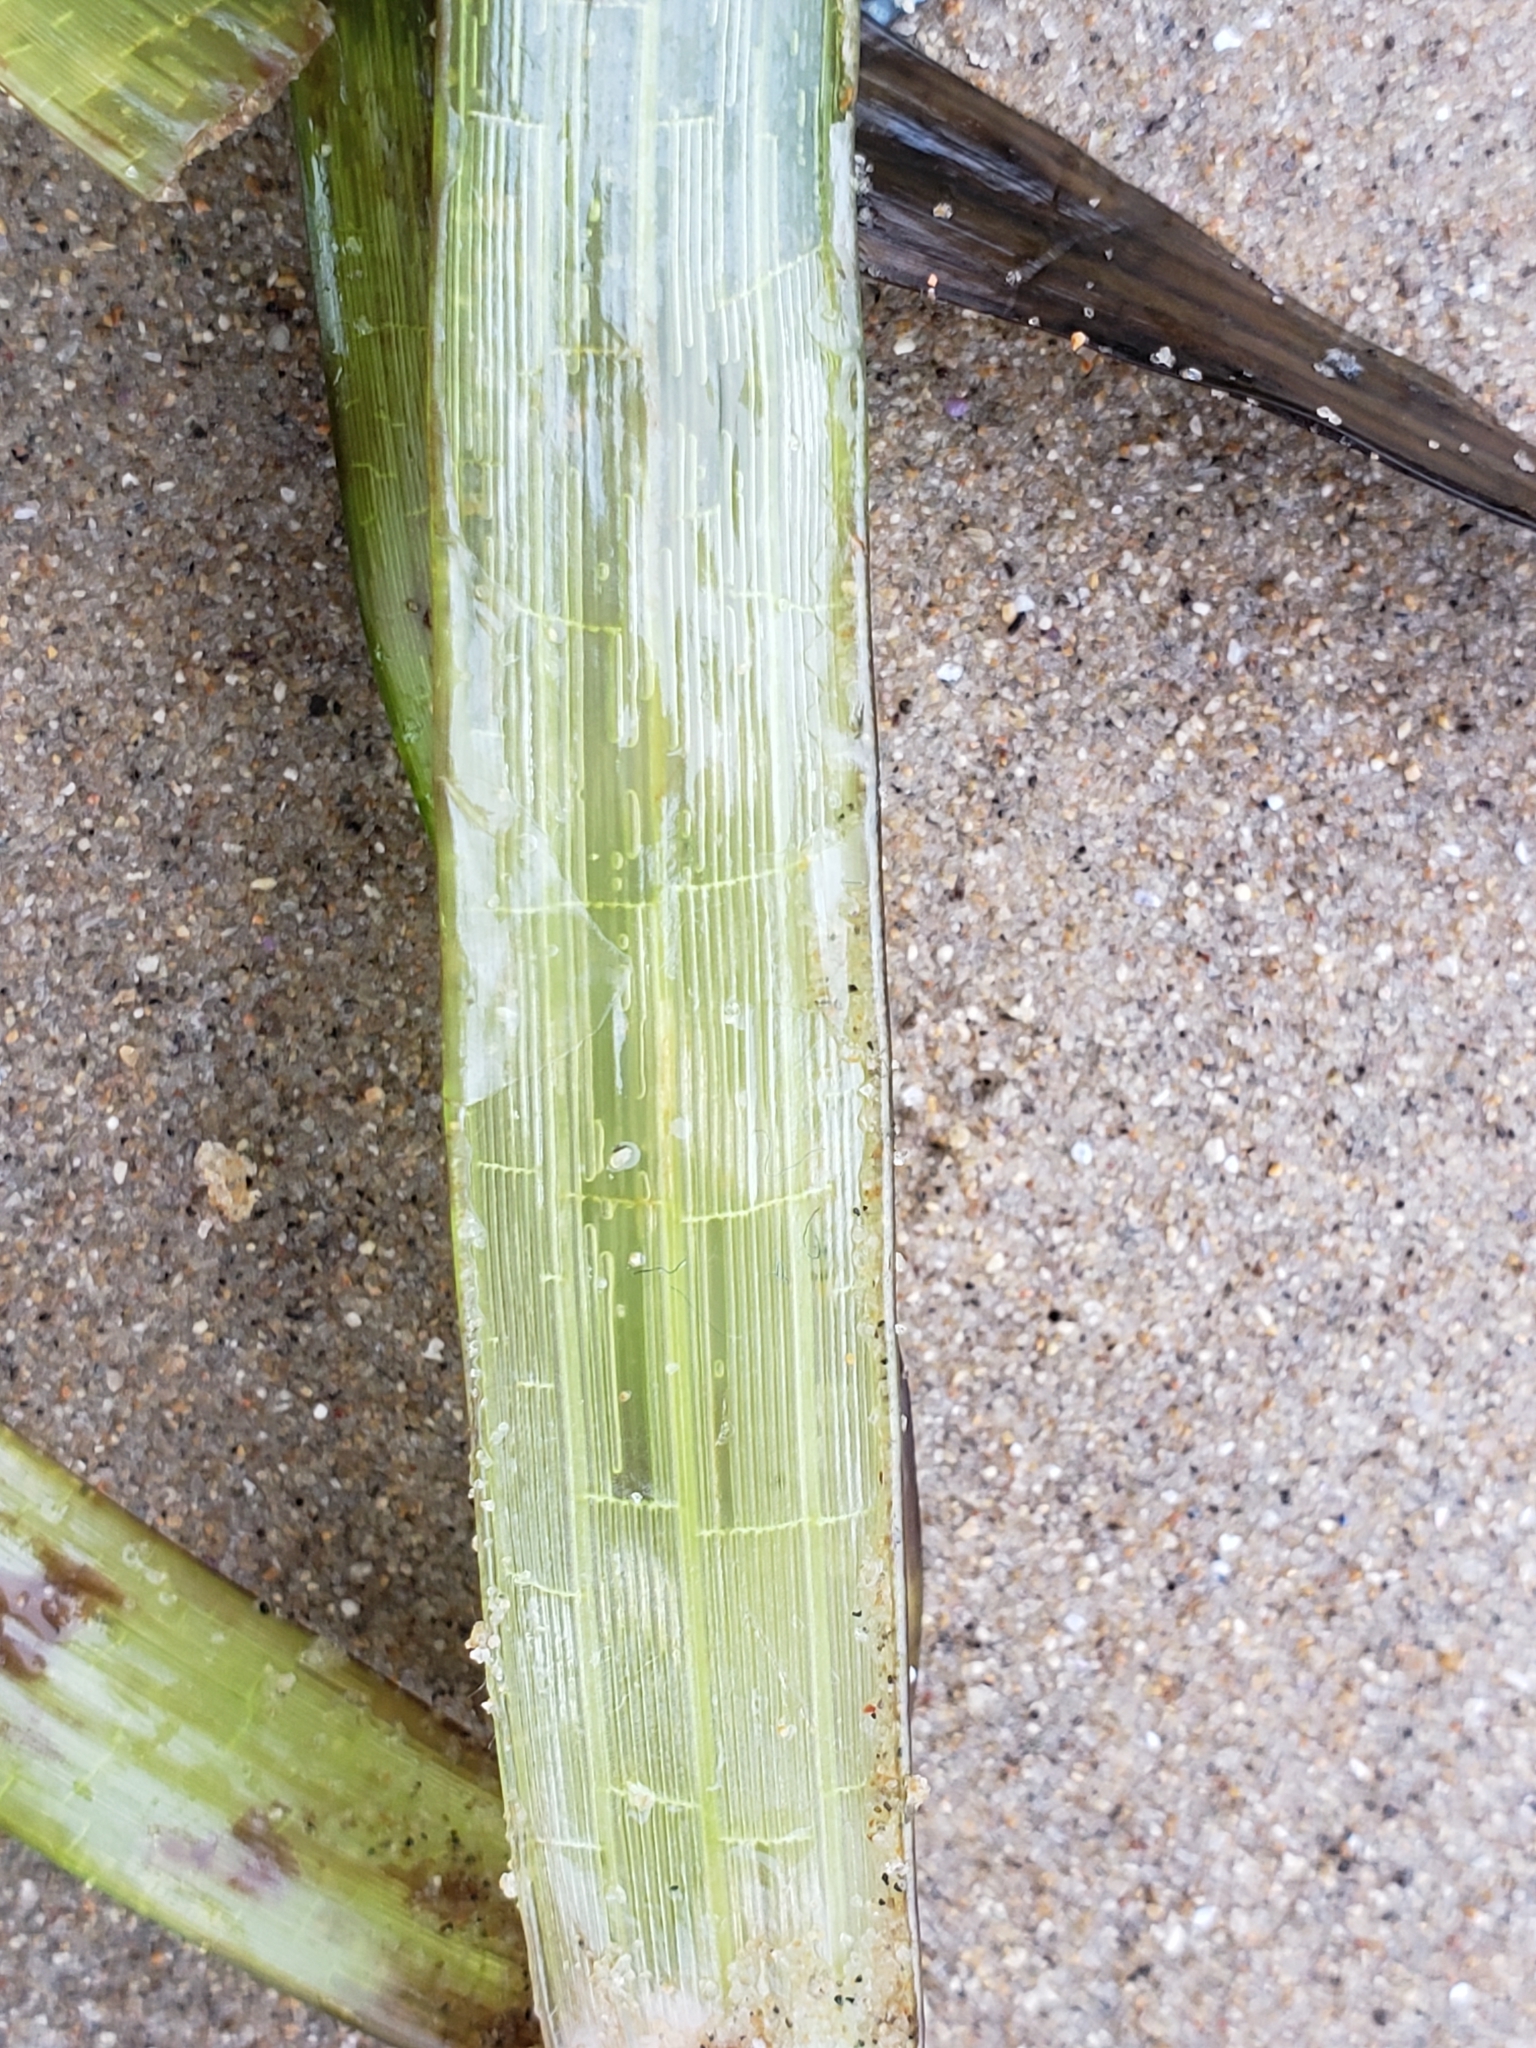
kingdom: Plantae
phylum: Tracheophyta
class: Liliopsida
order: Alismatales
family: Zosteraceae
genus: Zostera
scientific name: Zostera marina
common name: Eelgrass
